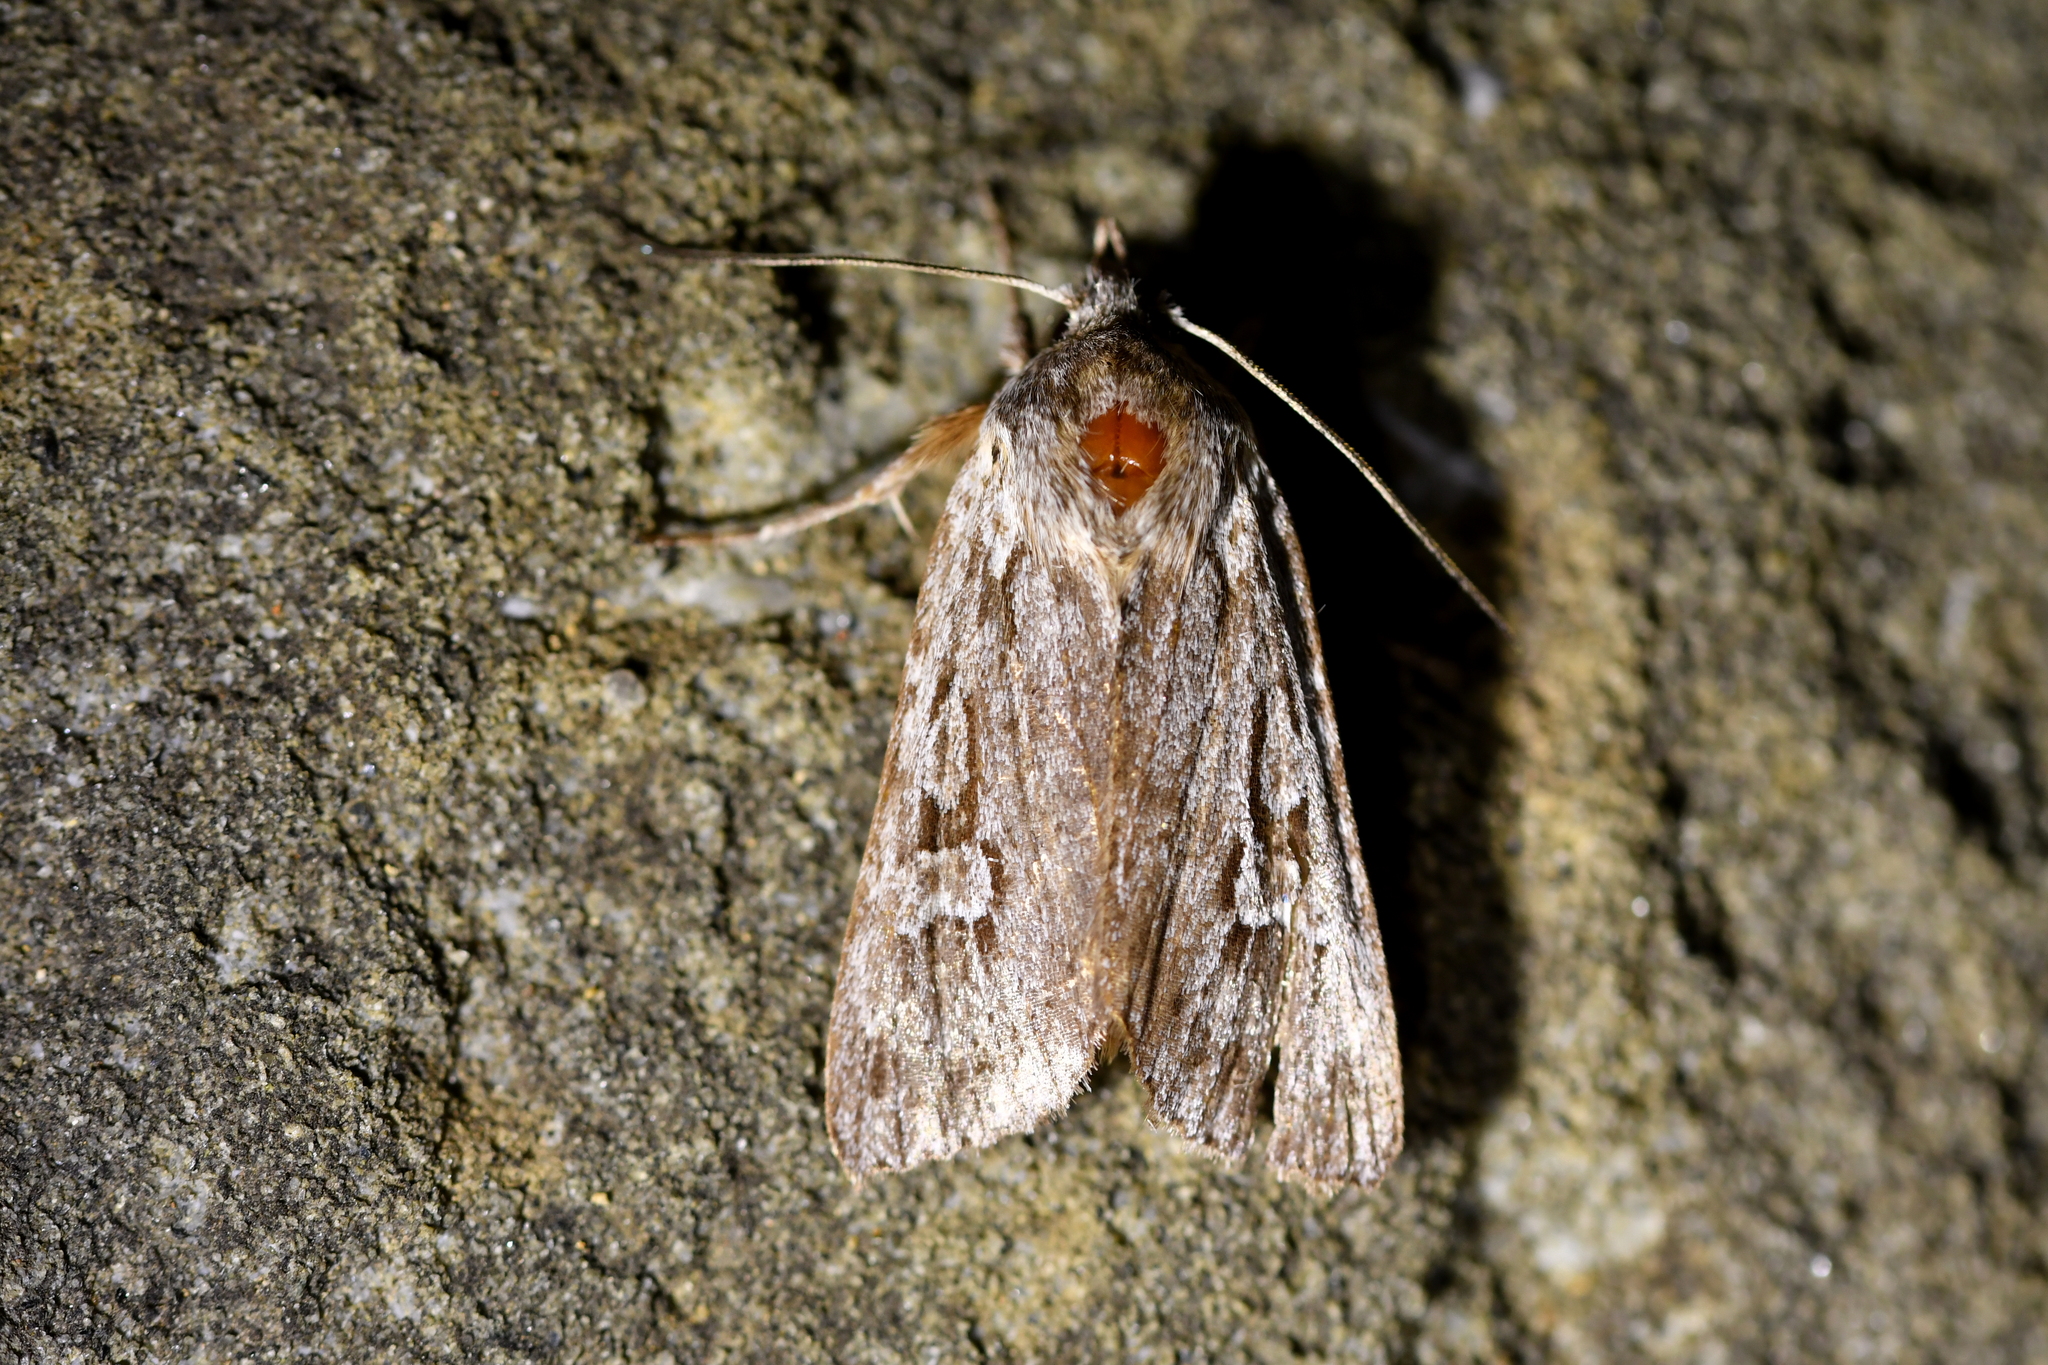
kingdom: Animalia
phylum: Arthropoda
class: Insecta
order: Lepidoptera
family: Noctuidae
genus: Physetica
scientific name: Physetica sequens
